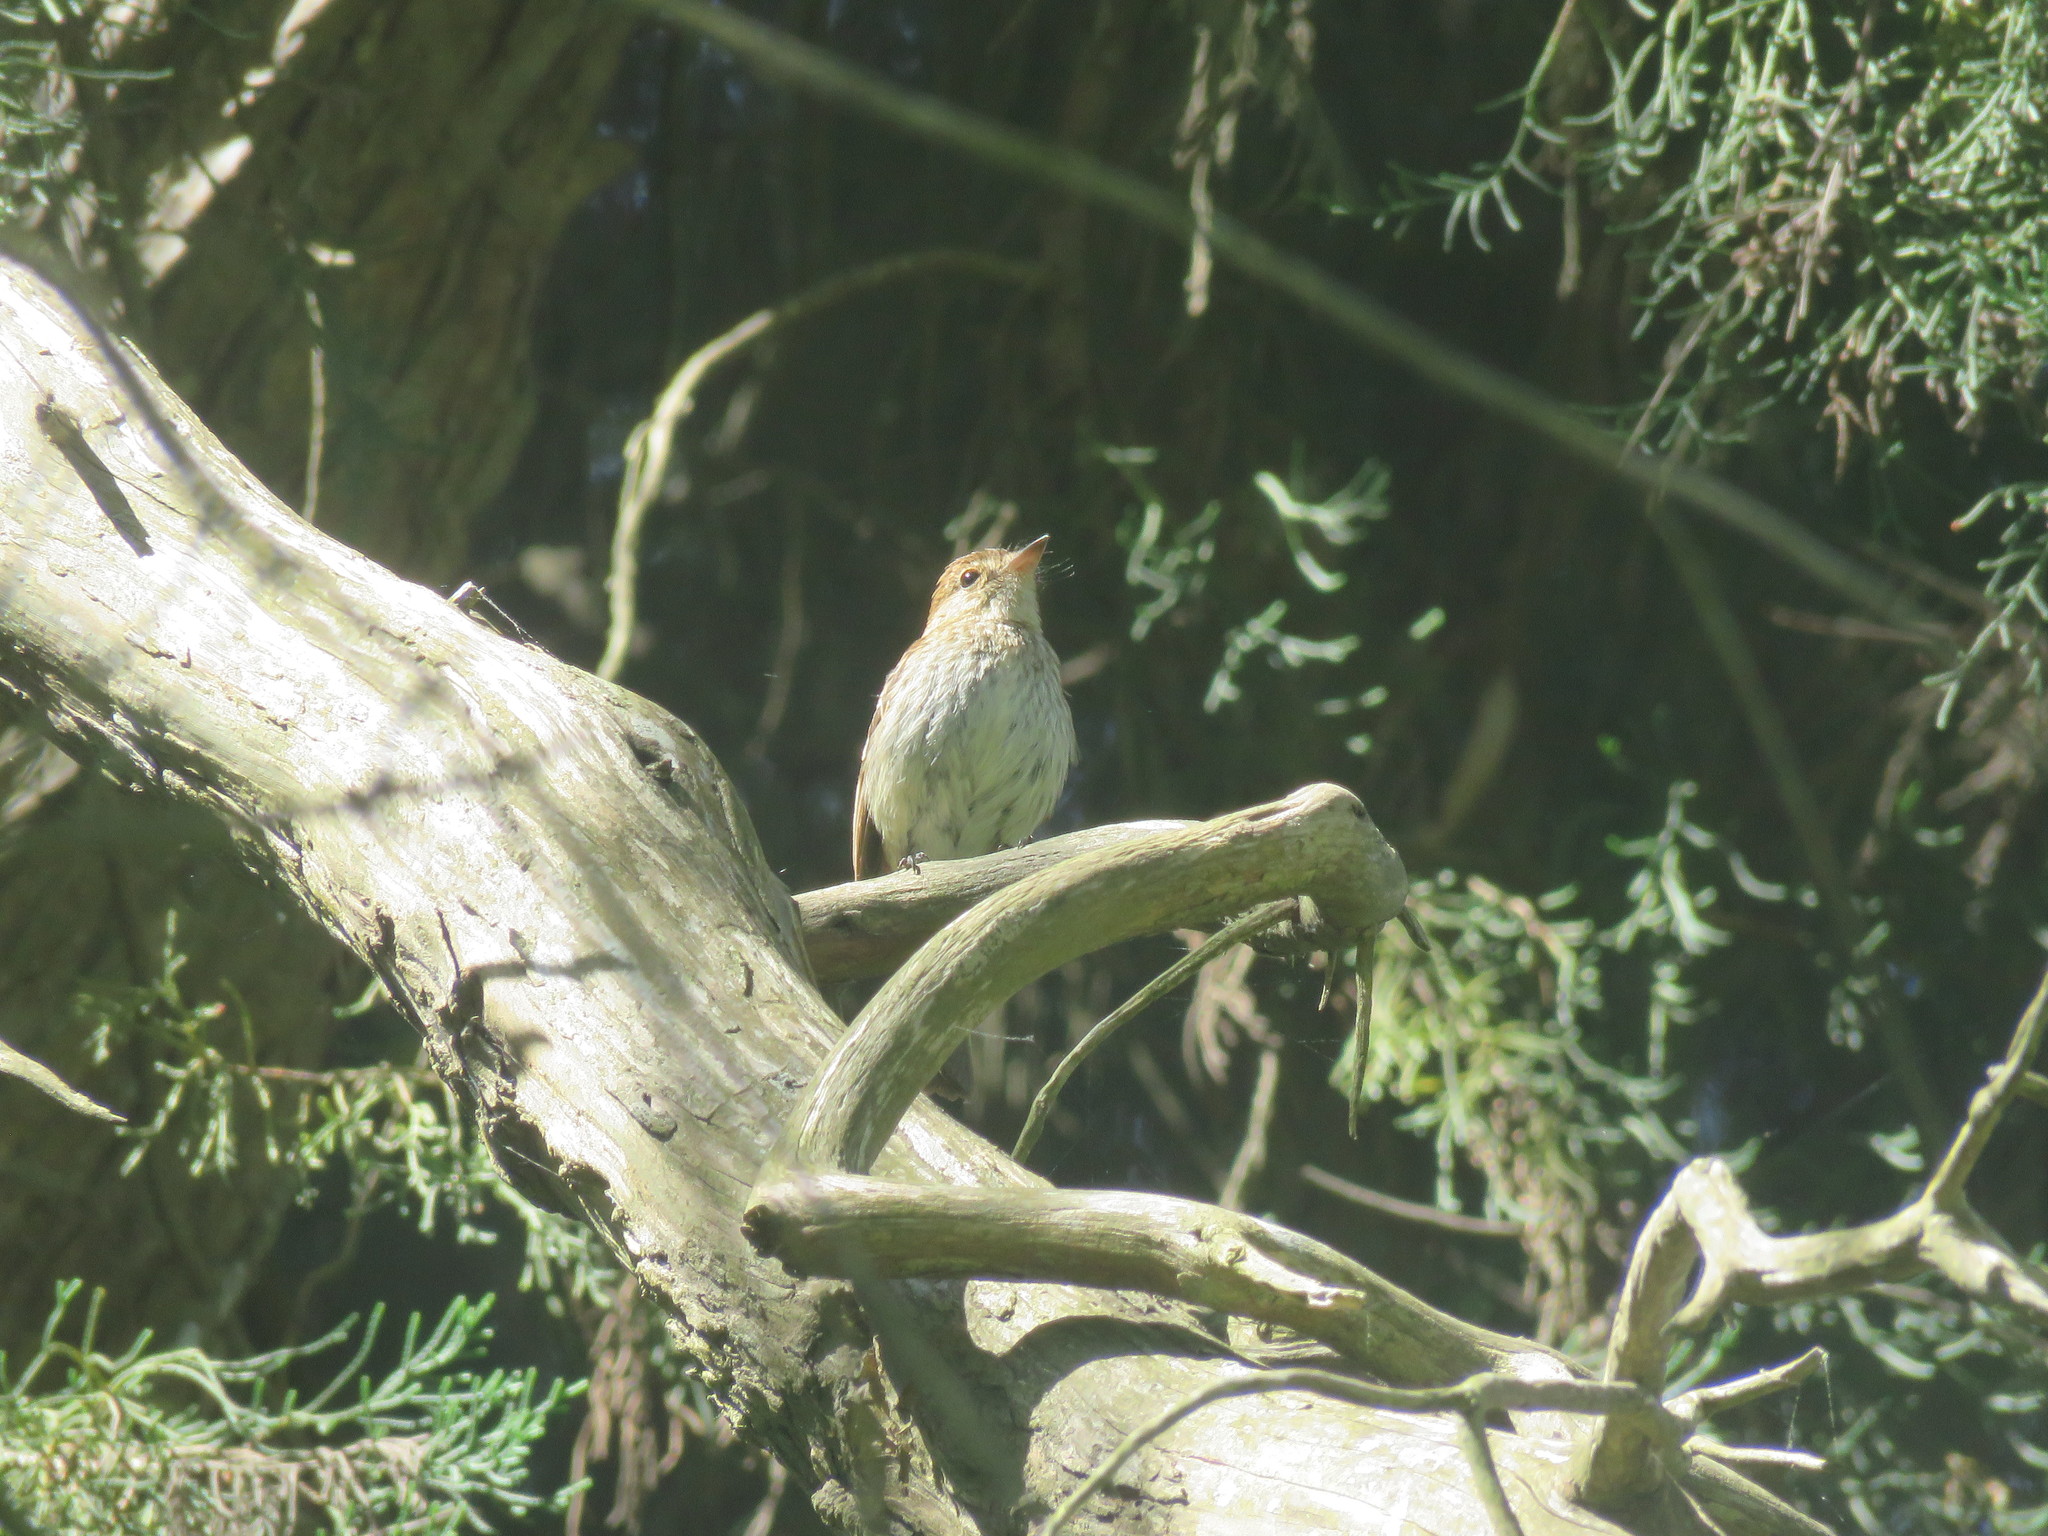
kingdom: Animalia
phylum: Chordata
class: Aves
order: Passeriformes
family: Tyrannidae
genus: Myiophobus
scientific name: Myiophobus fasciatus
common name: Bran-colored flycatcher
